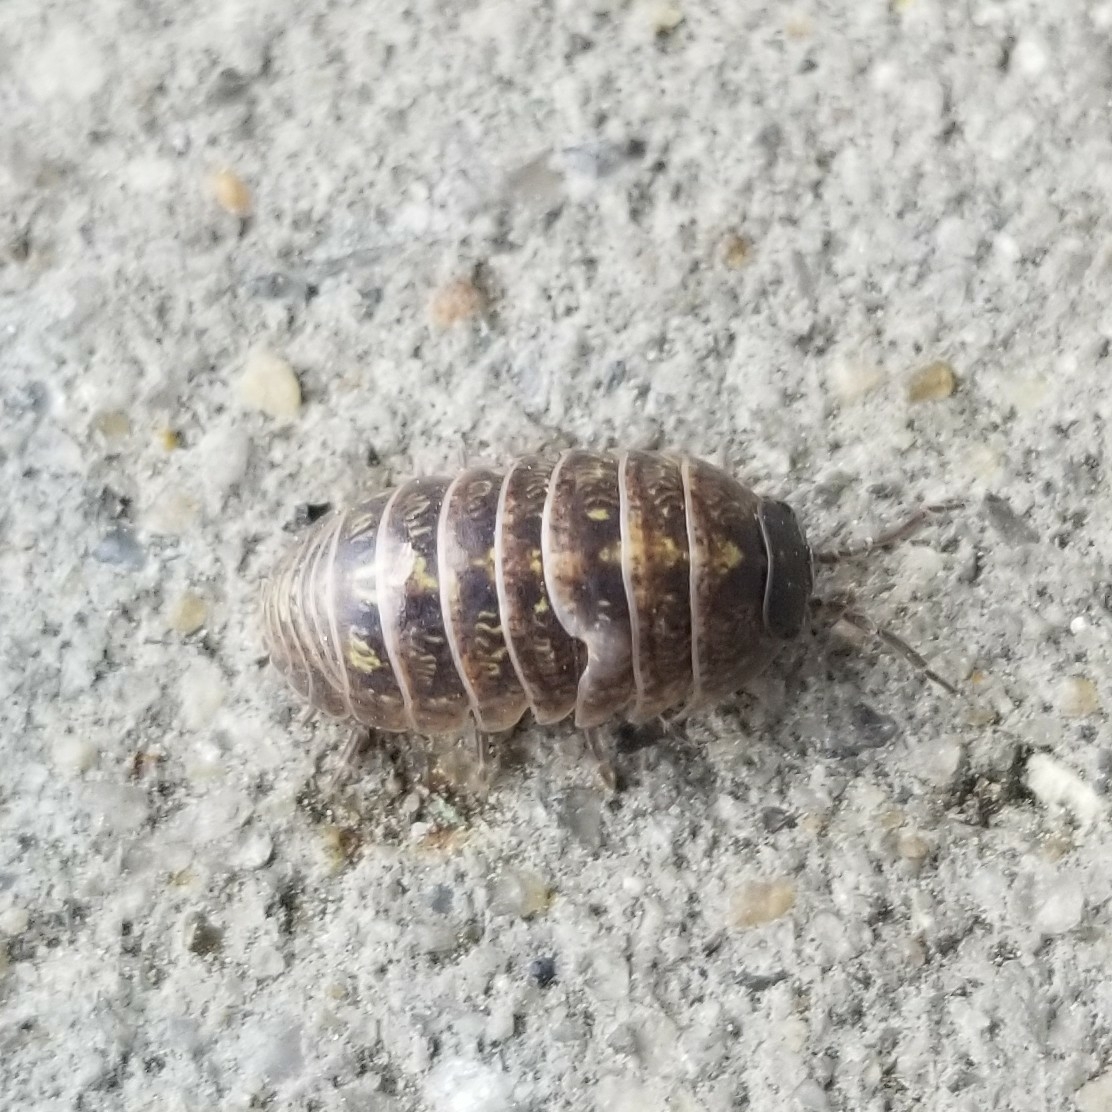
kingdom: Animalia
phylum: Arthropoda
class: Malacostraca
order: Isopoda
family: Armadillidiidae
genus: Armadillidium
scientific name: Armadillidium vulgare
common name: Common pill woodlouse
